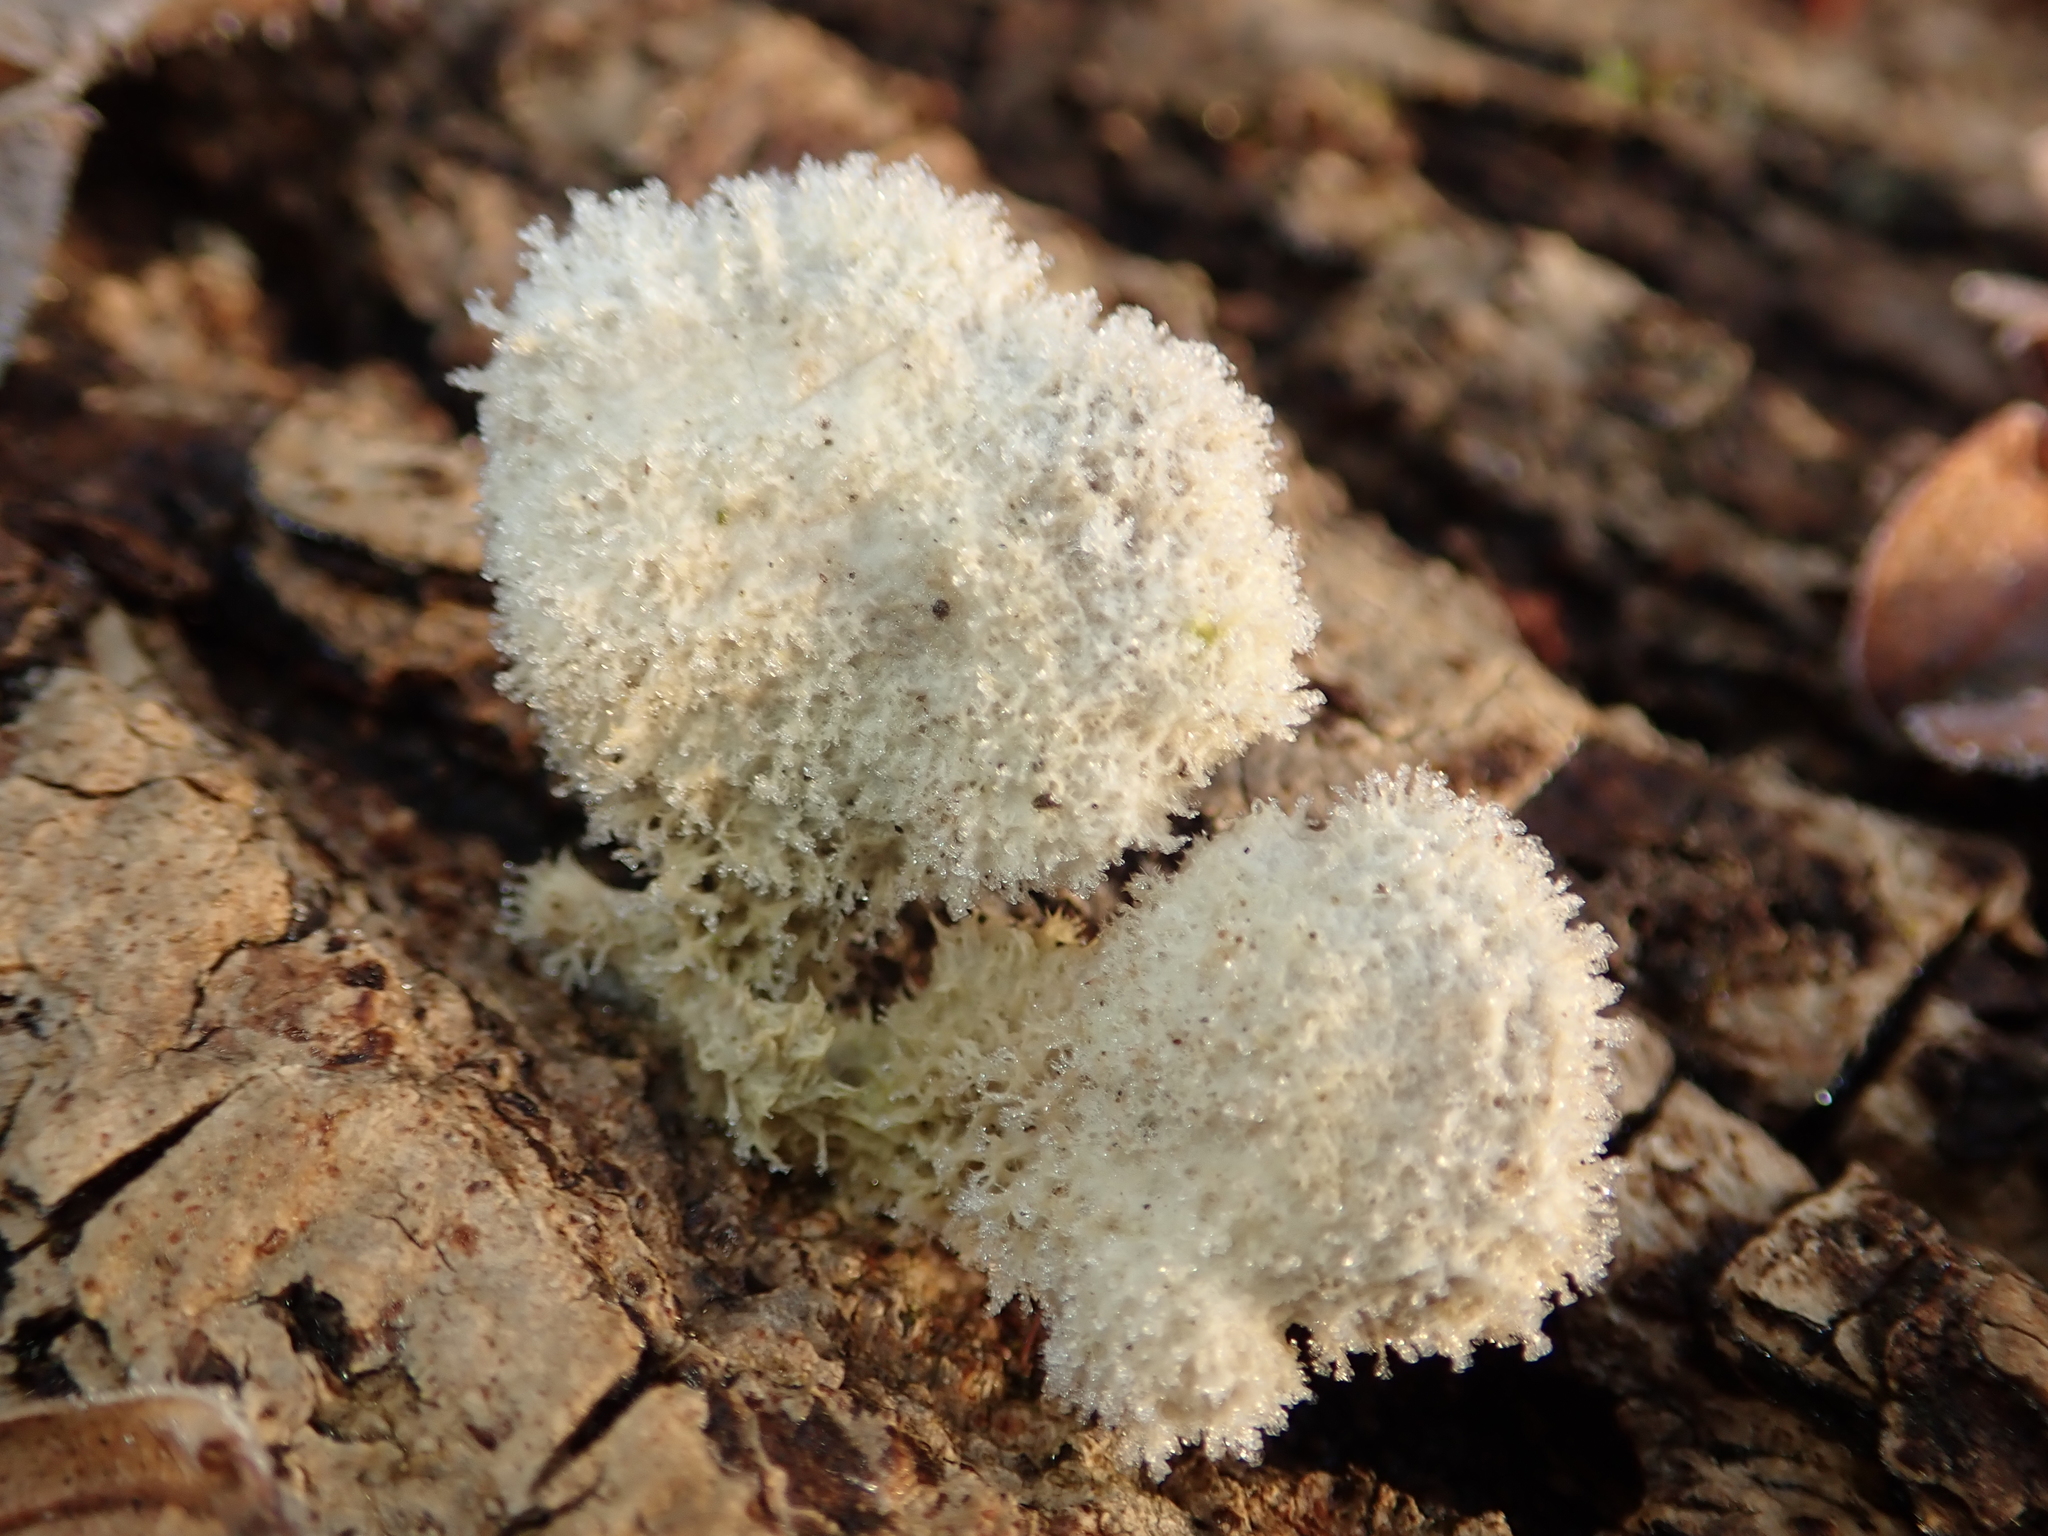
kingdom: Fungi
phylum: Basidiomycota
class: Agaricomycetes
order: Agaricales
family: Schizophyllaceae
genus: Schizophyllum
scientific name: Schizophyllum commune
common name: Common porecrust
